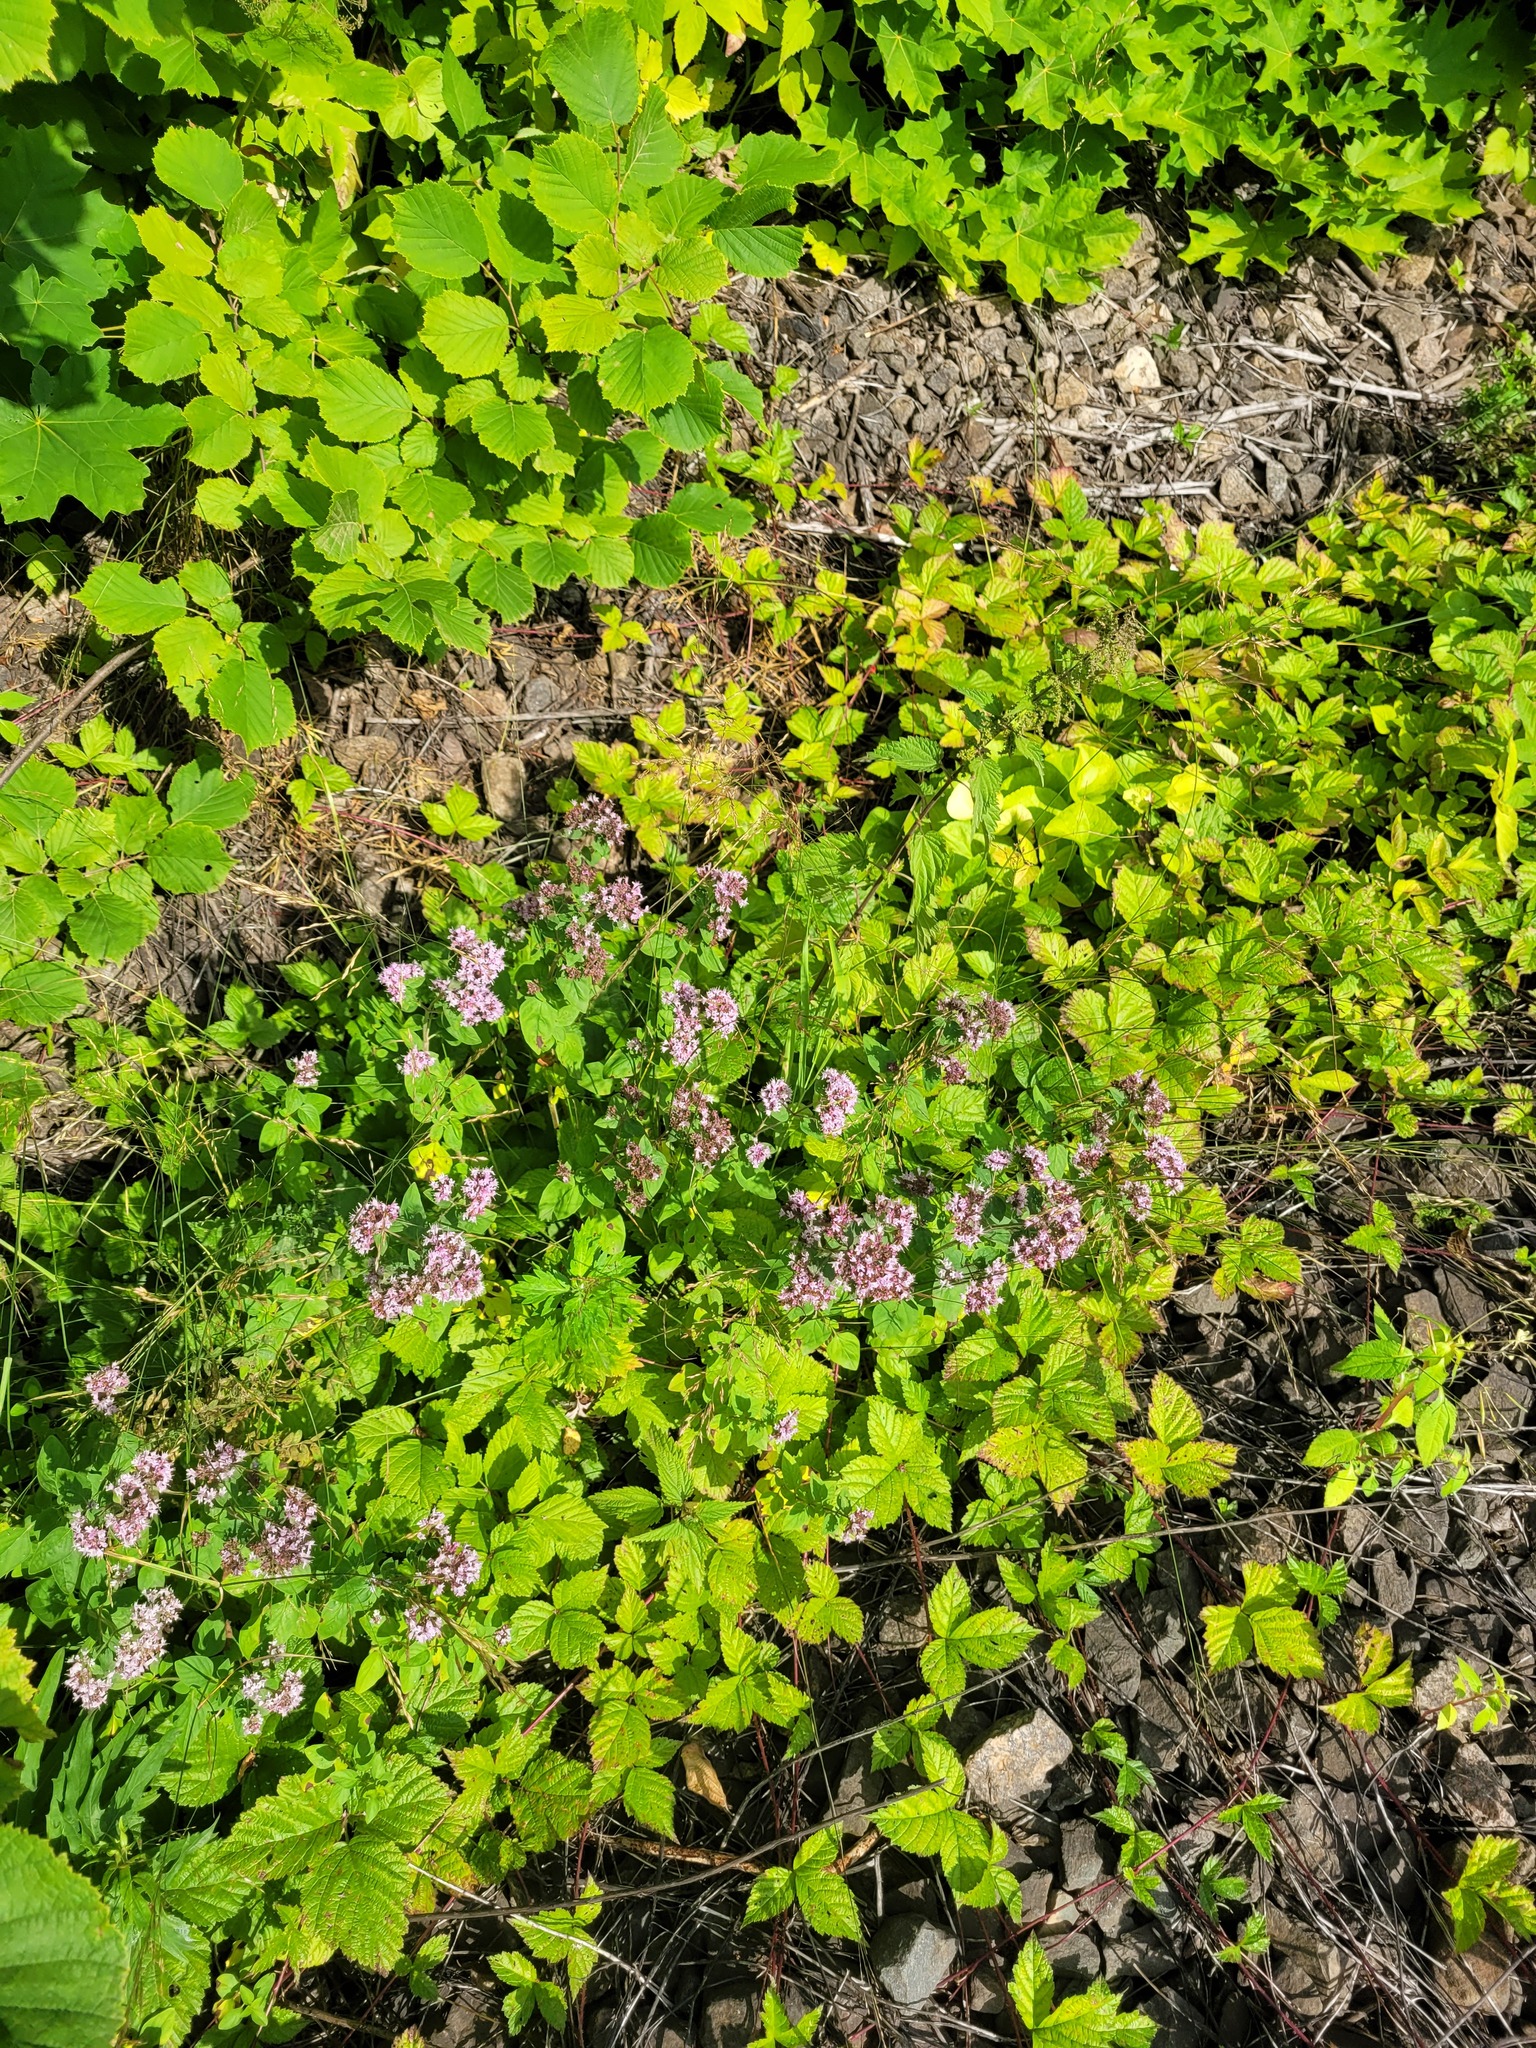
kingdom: Plantae
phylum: Tracheophyta
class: Magnoliopsida
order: Lamiales
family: Lamiaceae
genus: Origanum
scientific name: Origanum vulgare
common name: Wild marjoram
